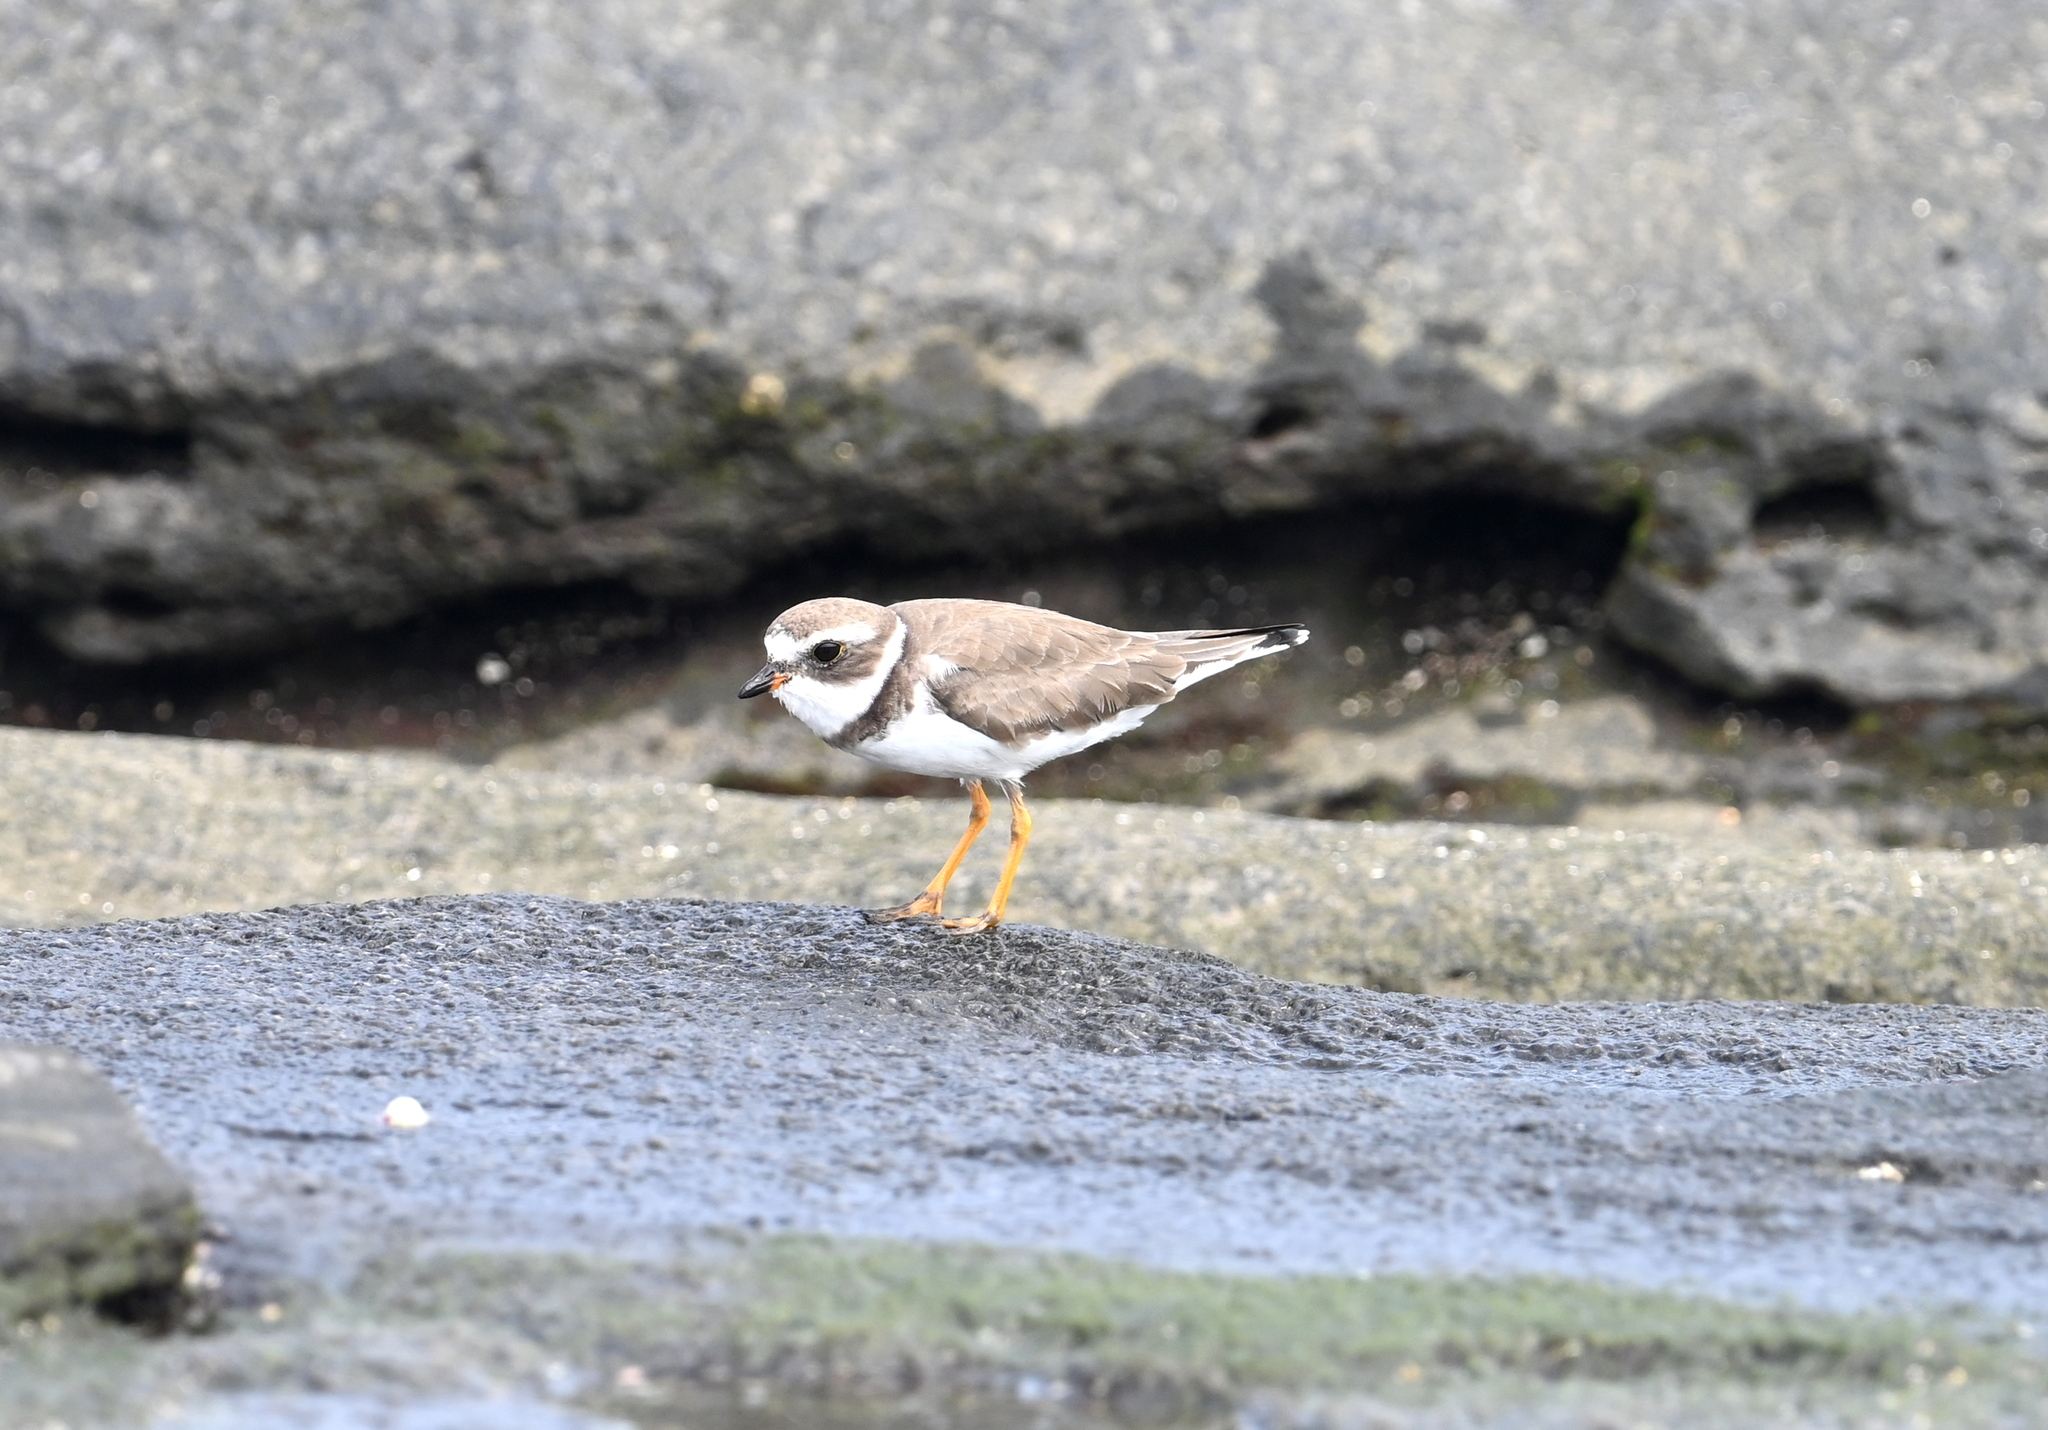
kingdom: Animalia
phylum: Chordata
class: Aves
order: Charadriiformes
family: Charadriidae
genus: Charadrius
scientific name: Charadrius semipalmatus
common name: Semipalmated plover
